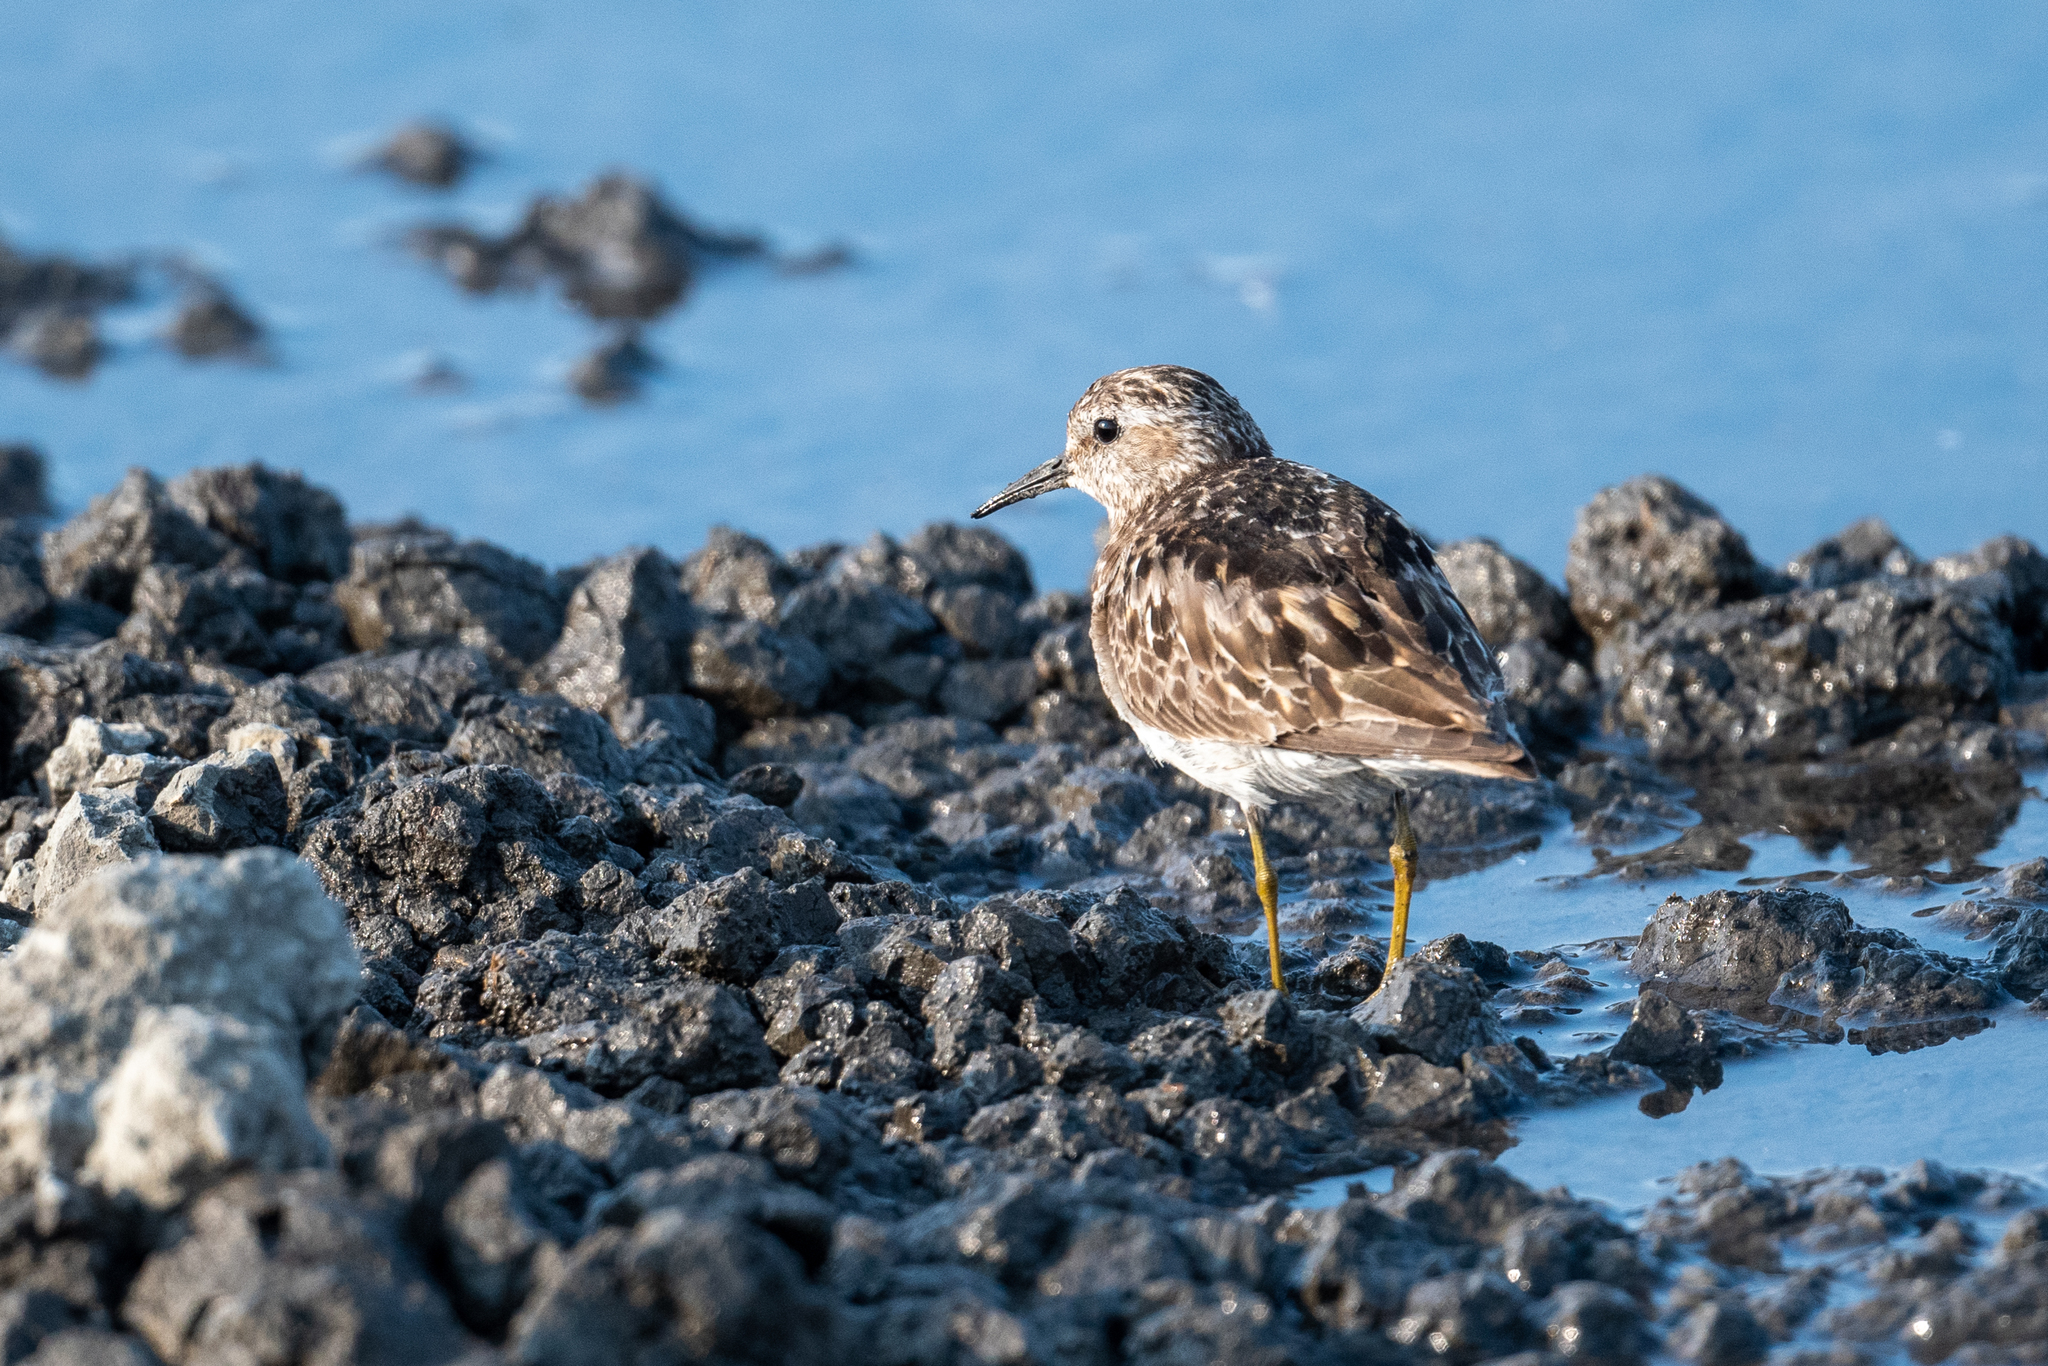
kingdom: Animalia
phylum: Chordata
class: Aves
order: Charadriiformes
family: Scolopacidae
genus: Calidris
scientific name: Calidris minutilla
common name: Least sandpiper
